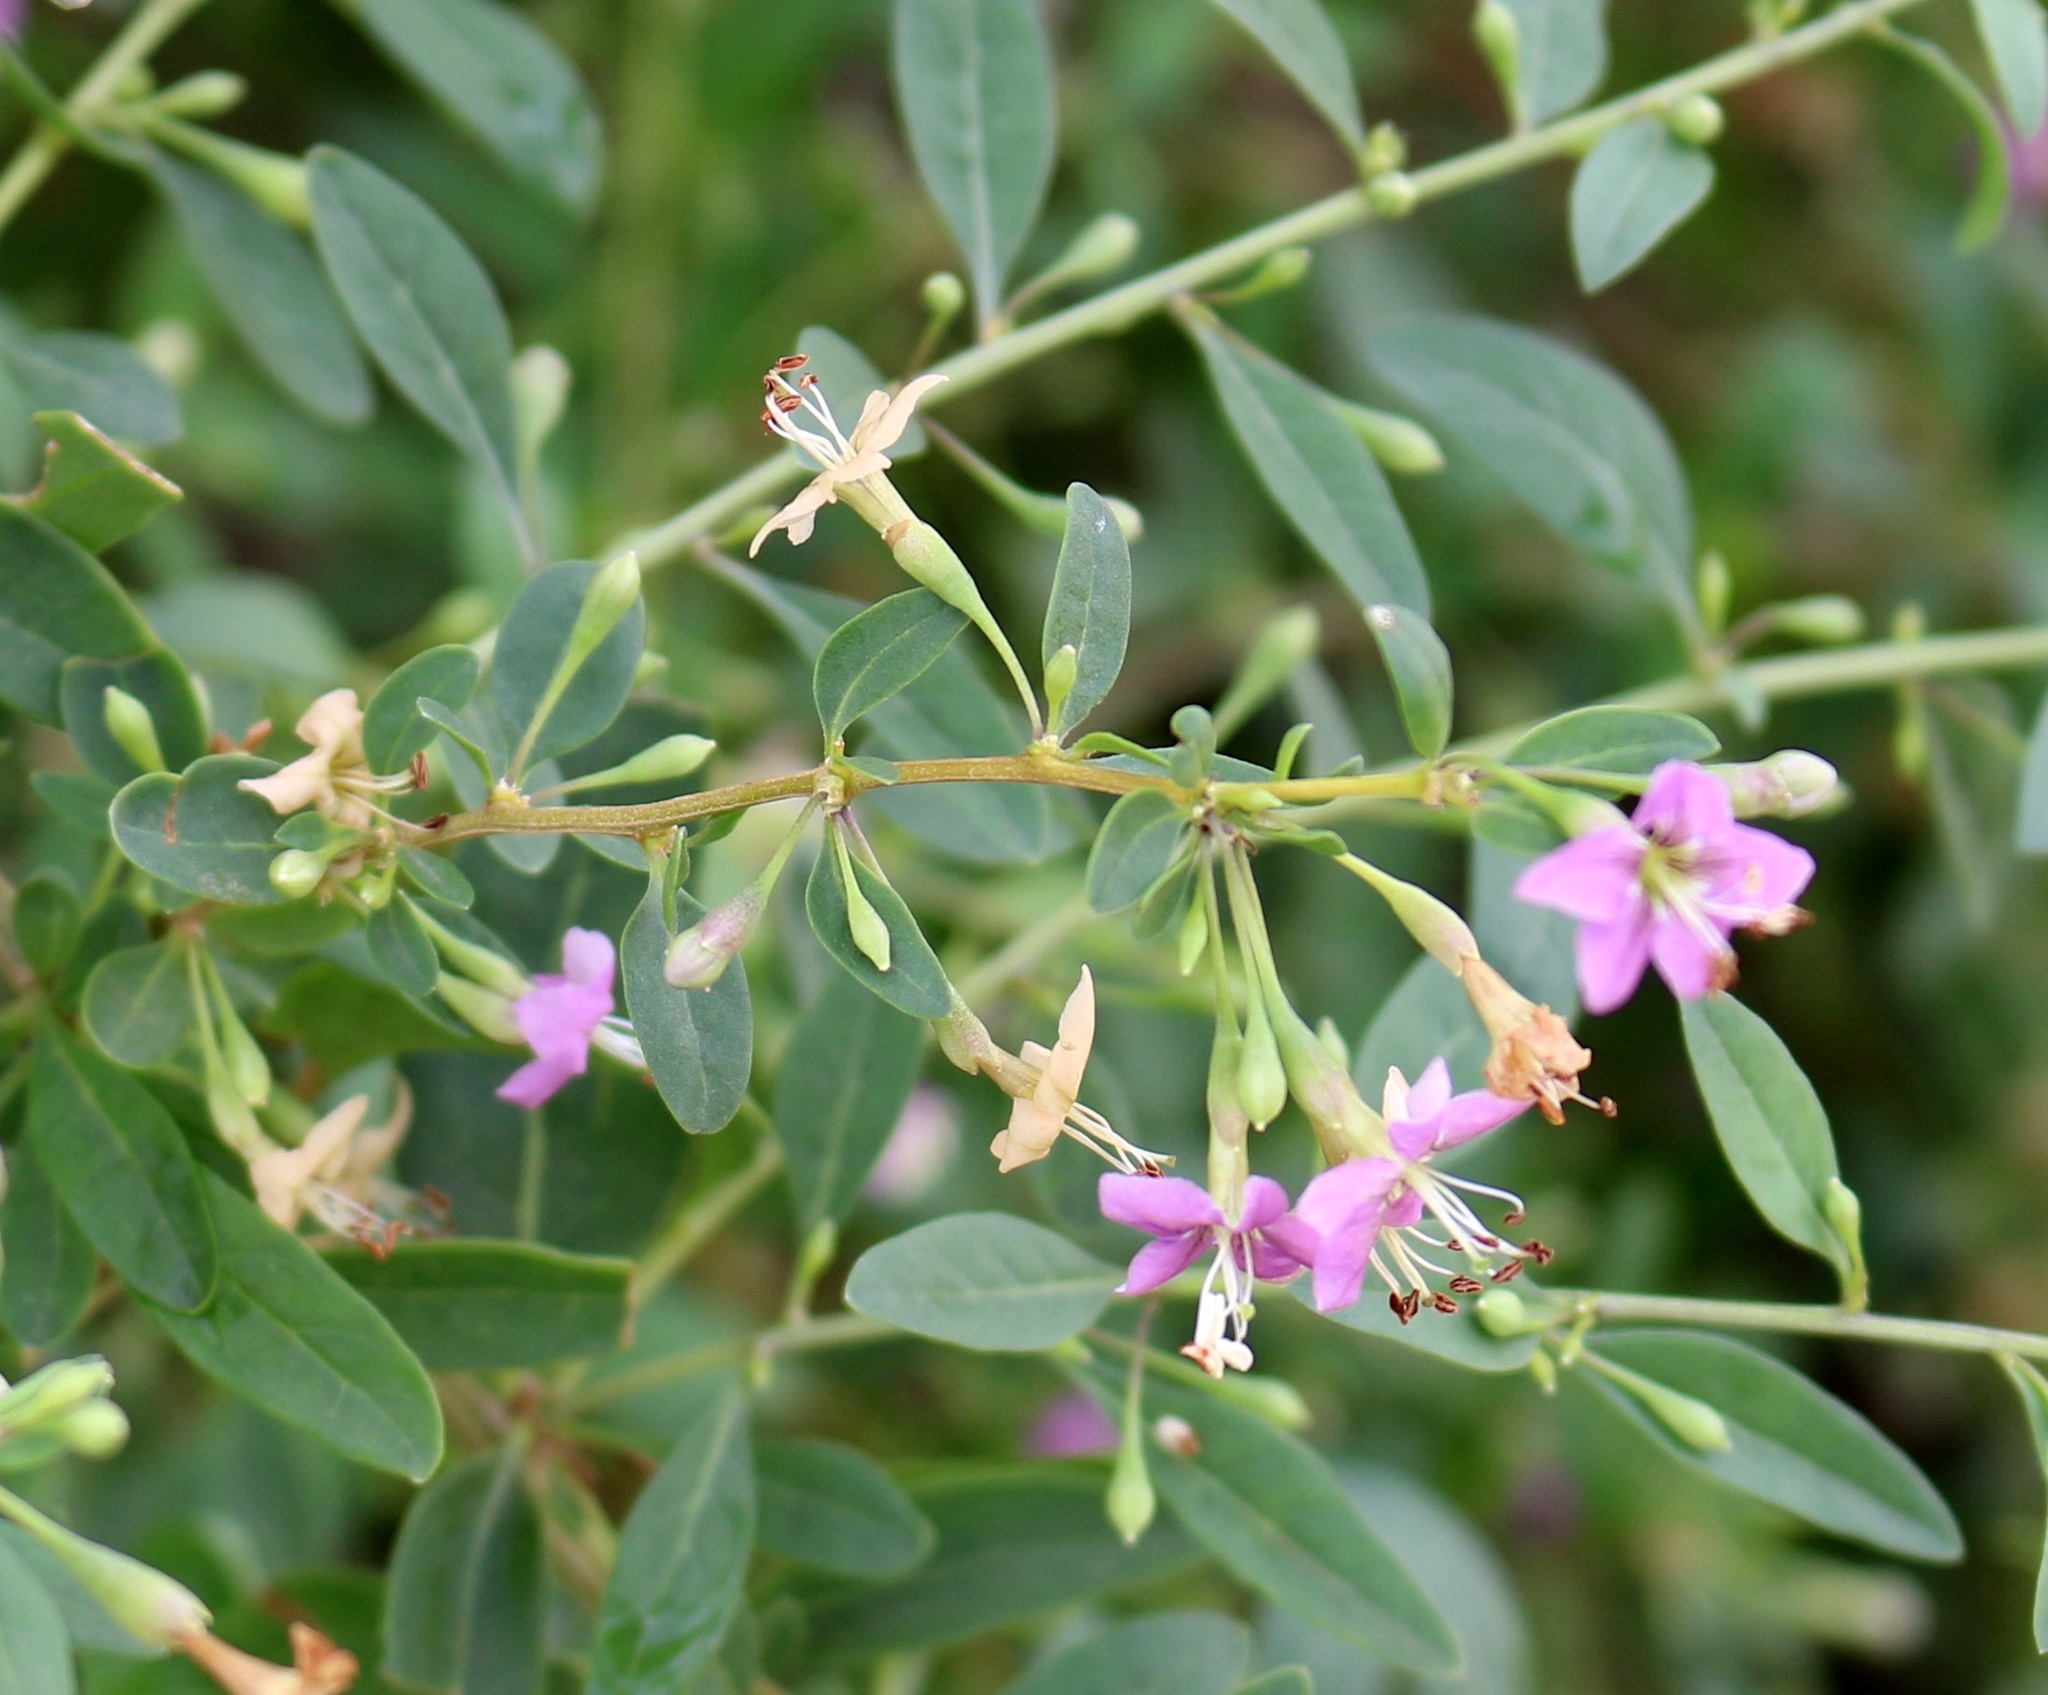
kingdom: Plantae
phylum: Tracheophyta
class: Magnoliopsida
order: Solanales
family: Solanaceae
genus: Lycium
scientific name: Lycium barbarum
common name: Duke of argyll's teaplant
